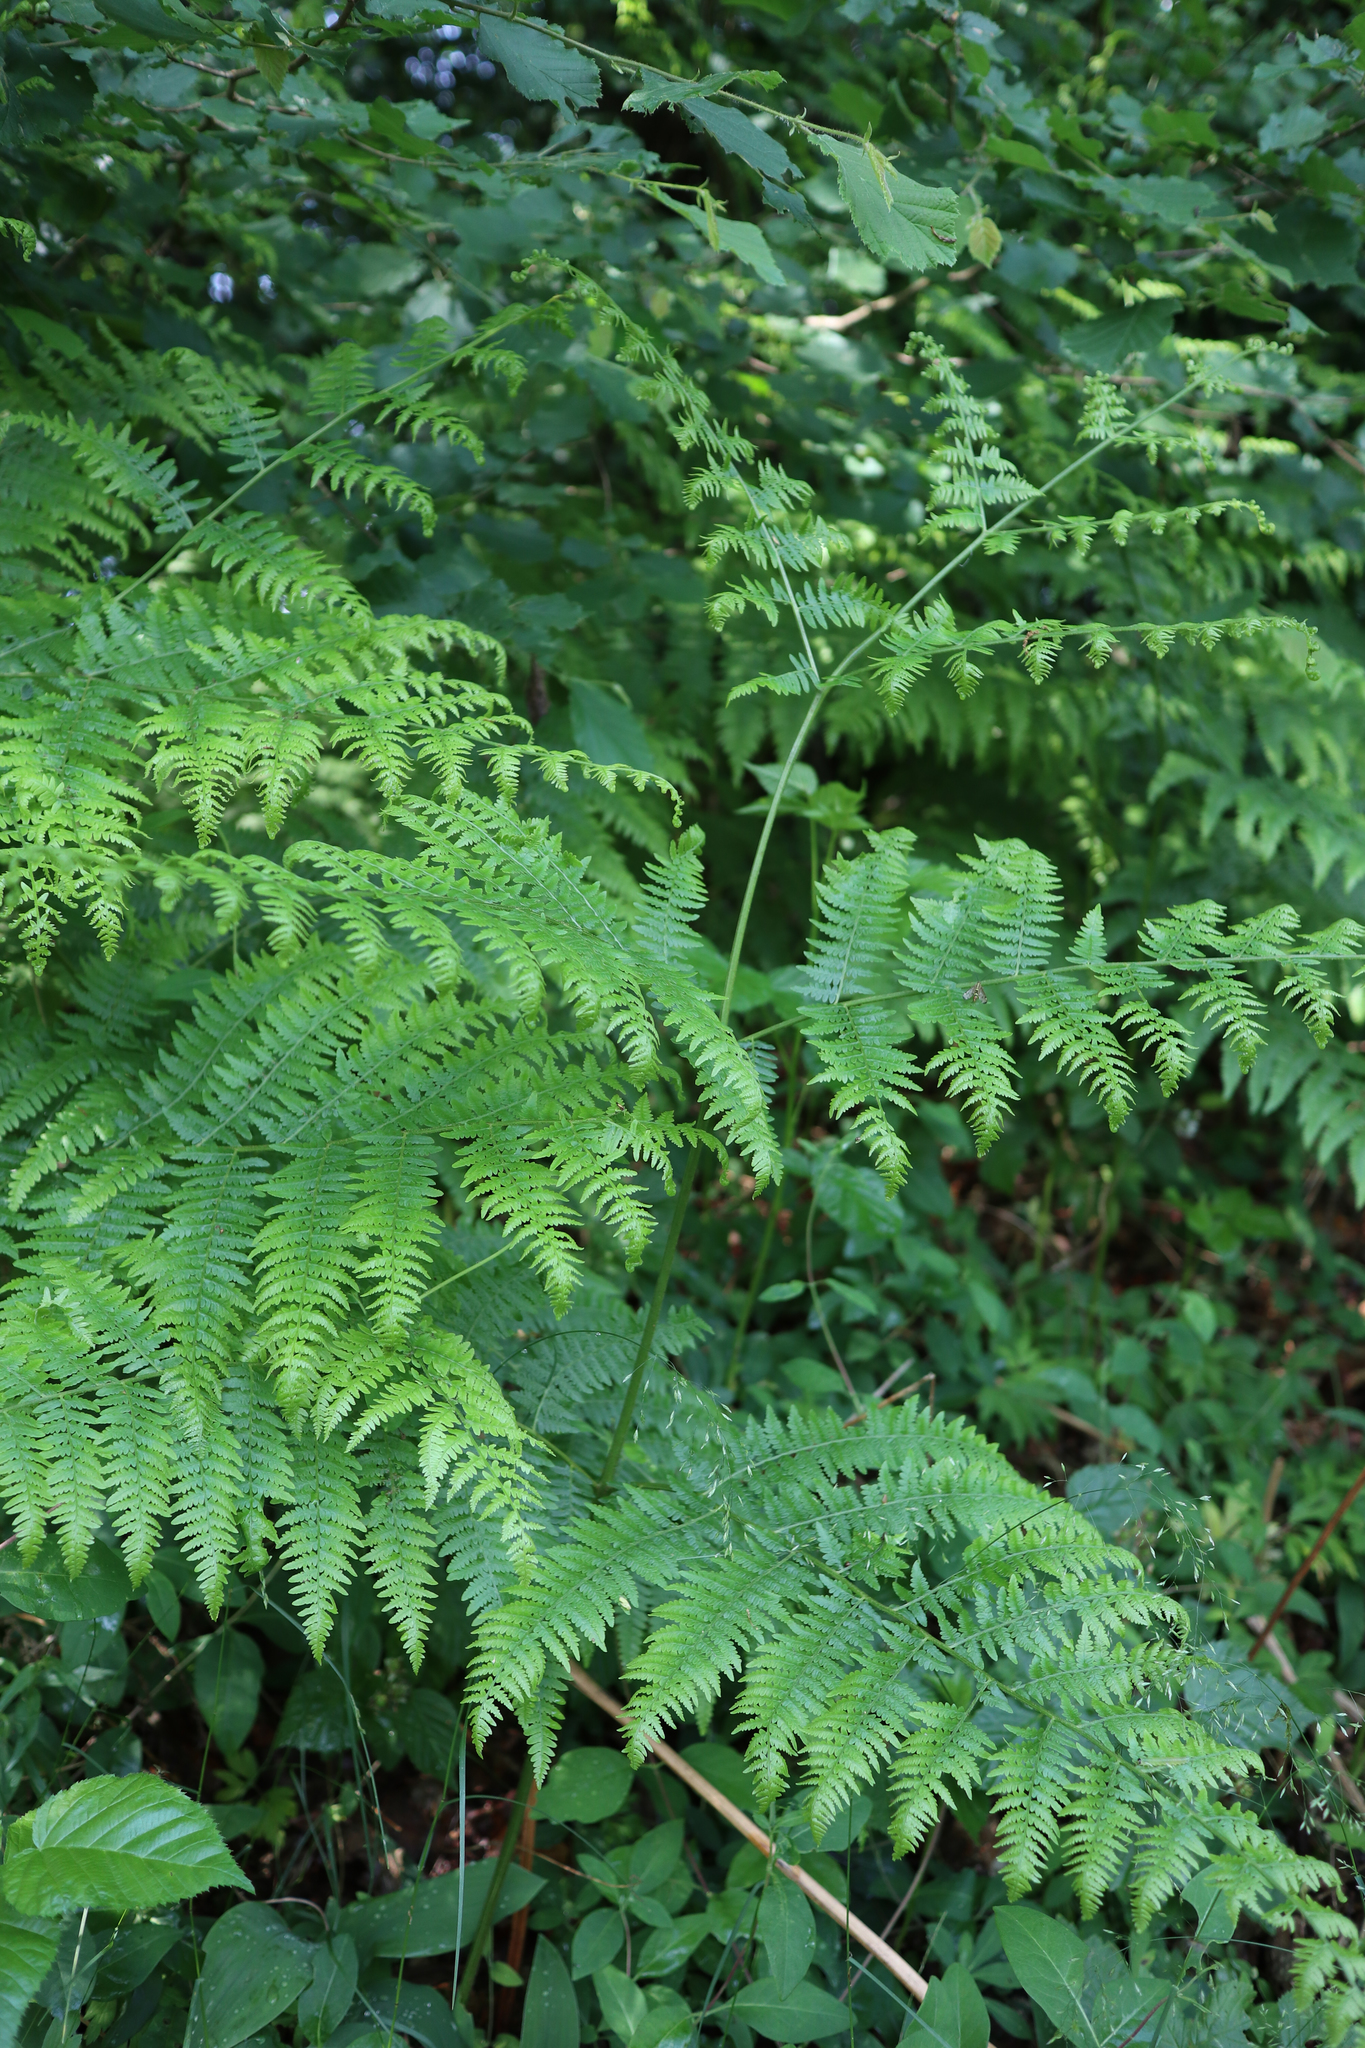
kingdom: Plantae
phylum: Tracheophyta
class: Polypodiopsida
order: Polypodiales
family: Dennstaedtiaceae
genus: Pteridium
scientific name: Pteridium aquilinum
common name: Bracken
